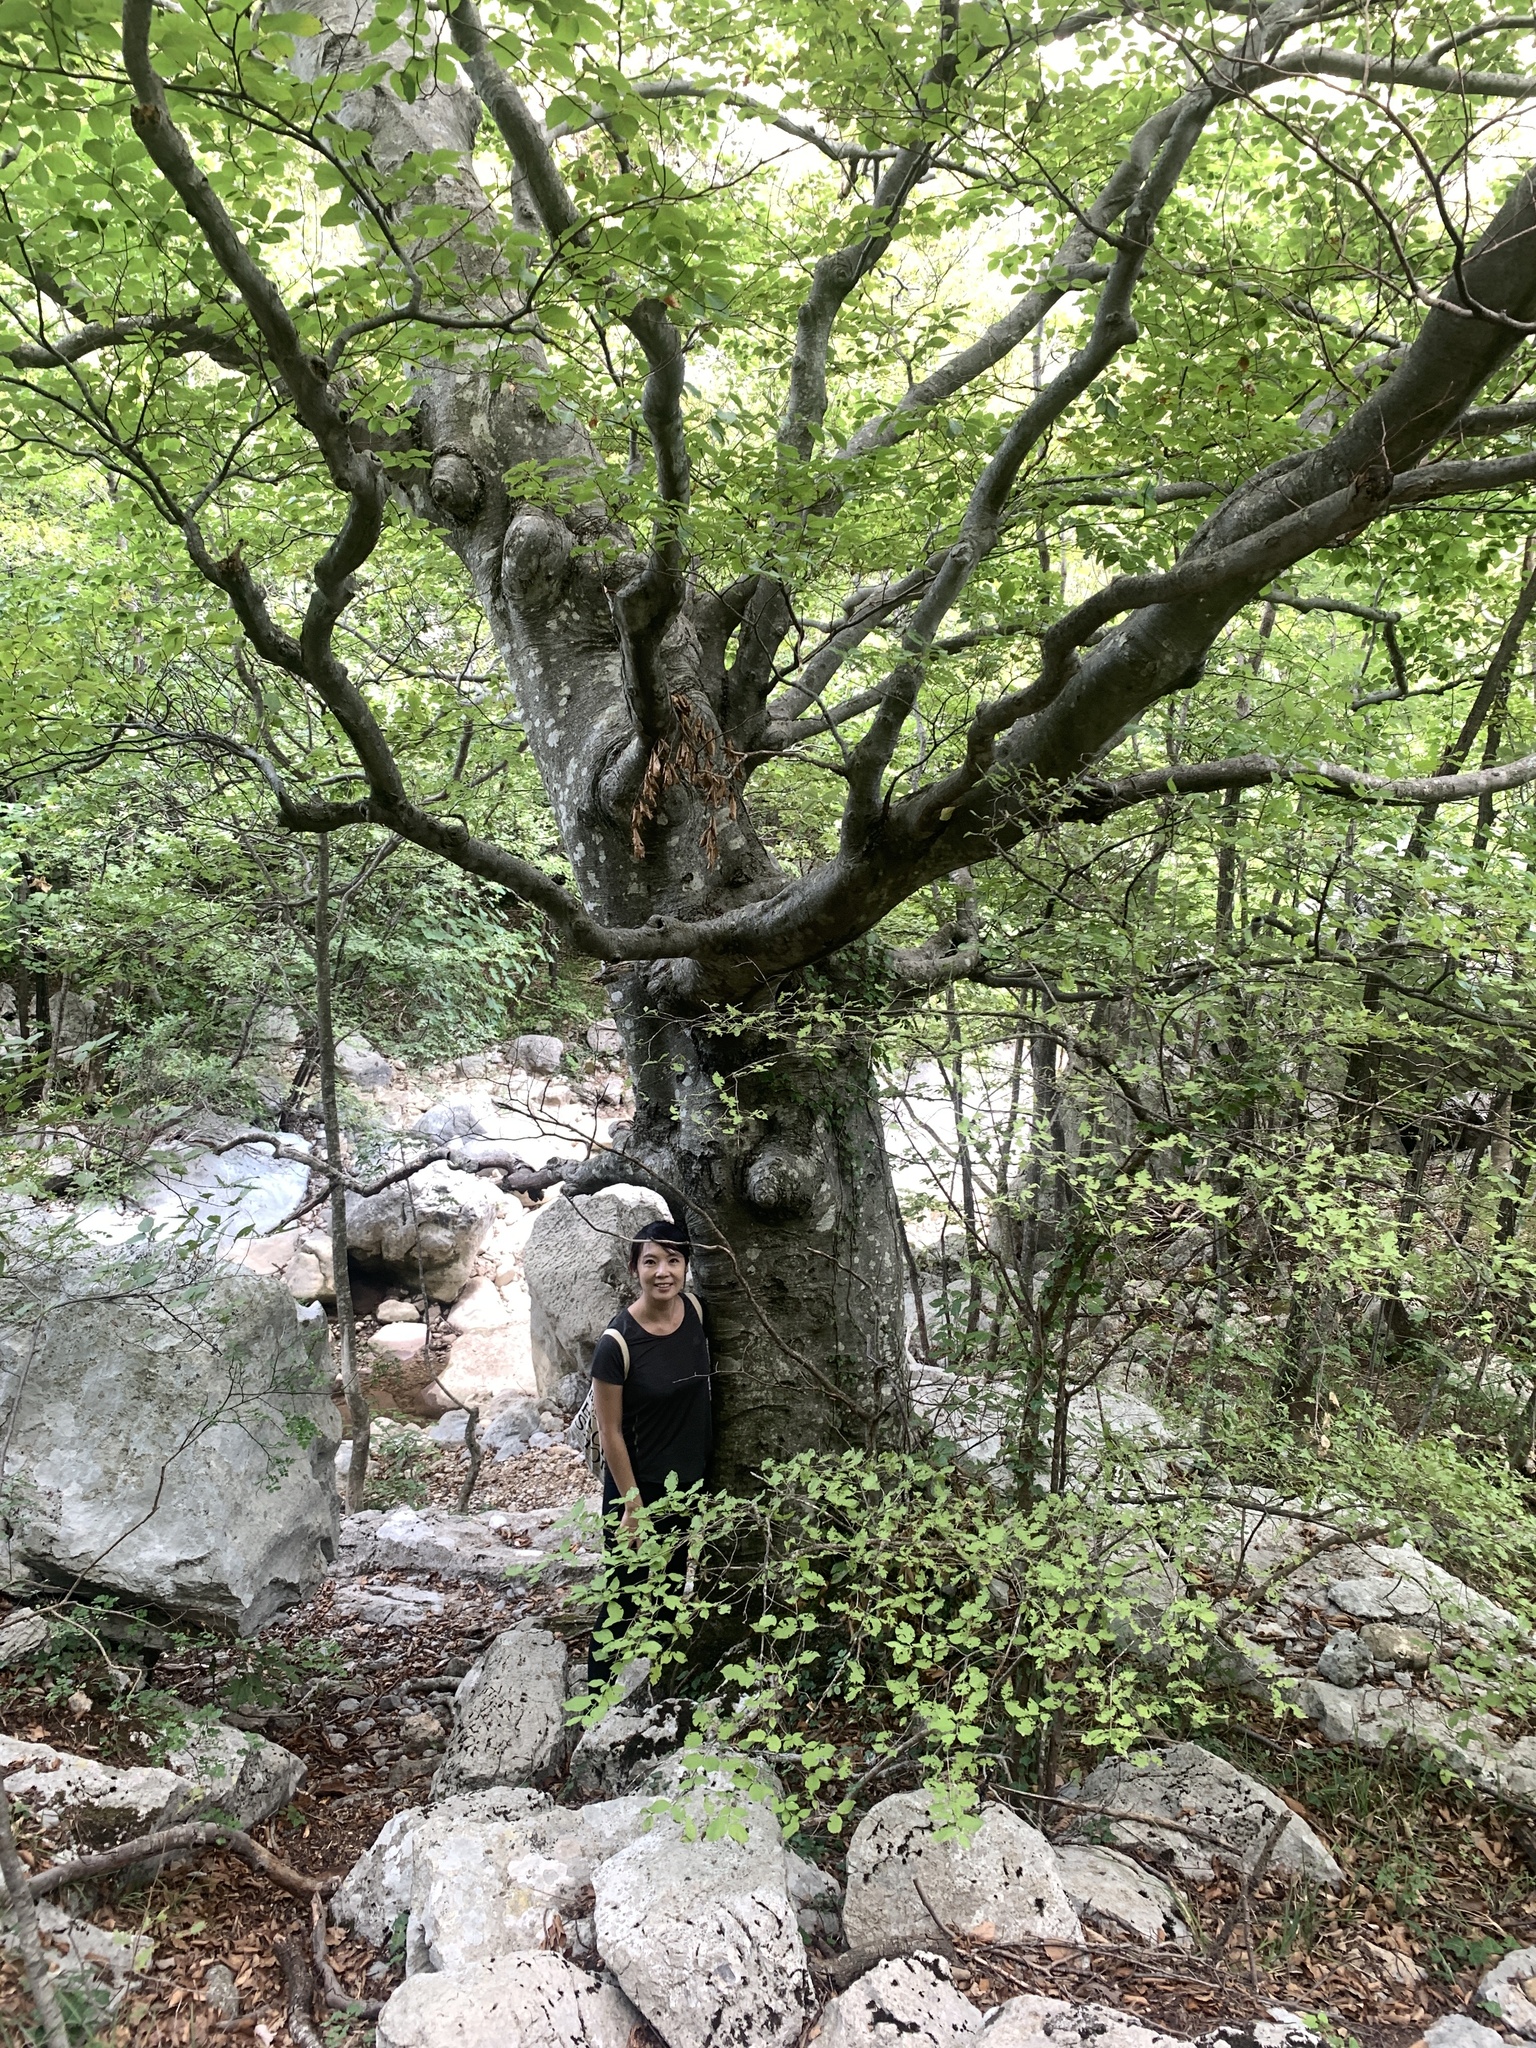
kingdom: Plantae
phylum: Tracheophyta
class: Magnoliopsida
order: Fagales
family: Fagaceae
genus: Fagus
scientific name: Fagus sylvatica
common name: Beech
